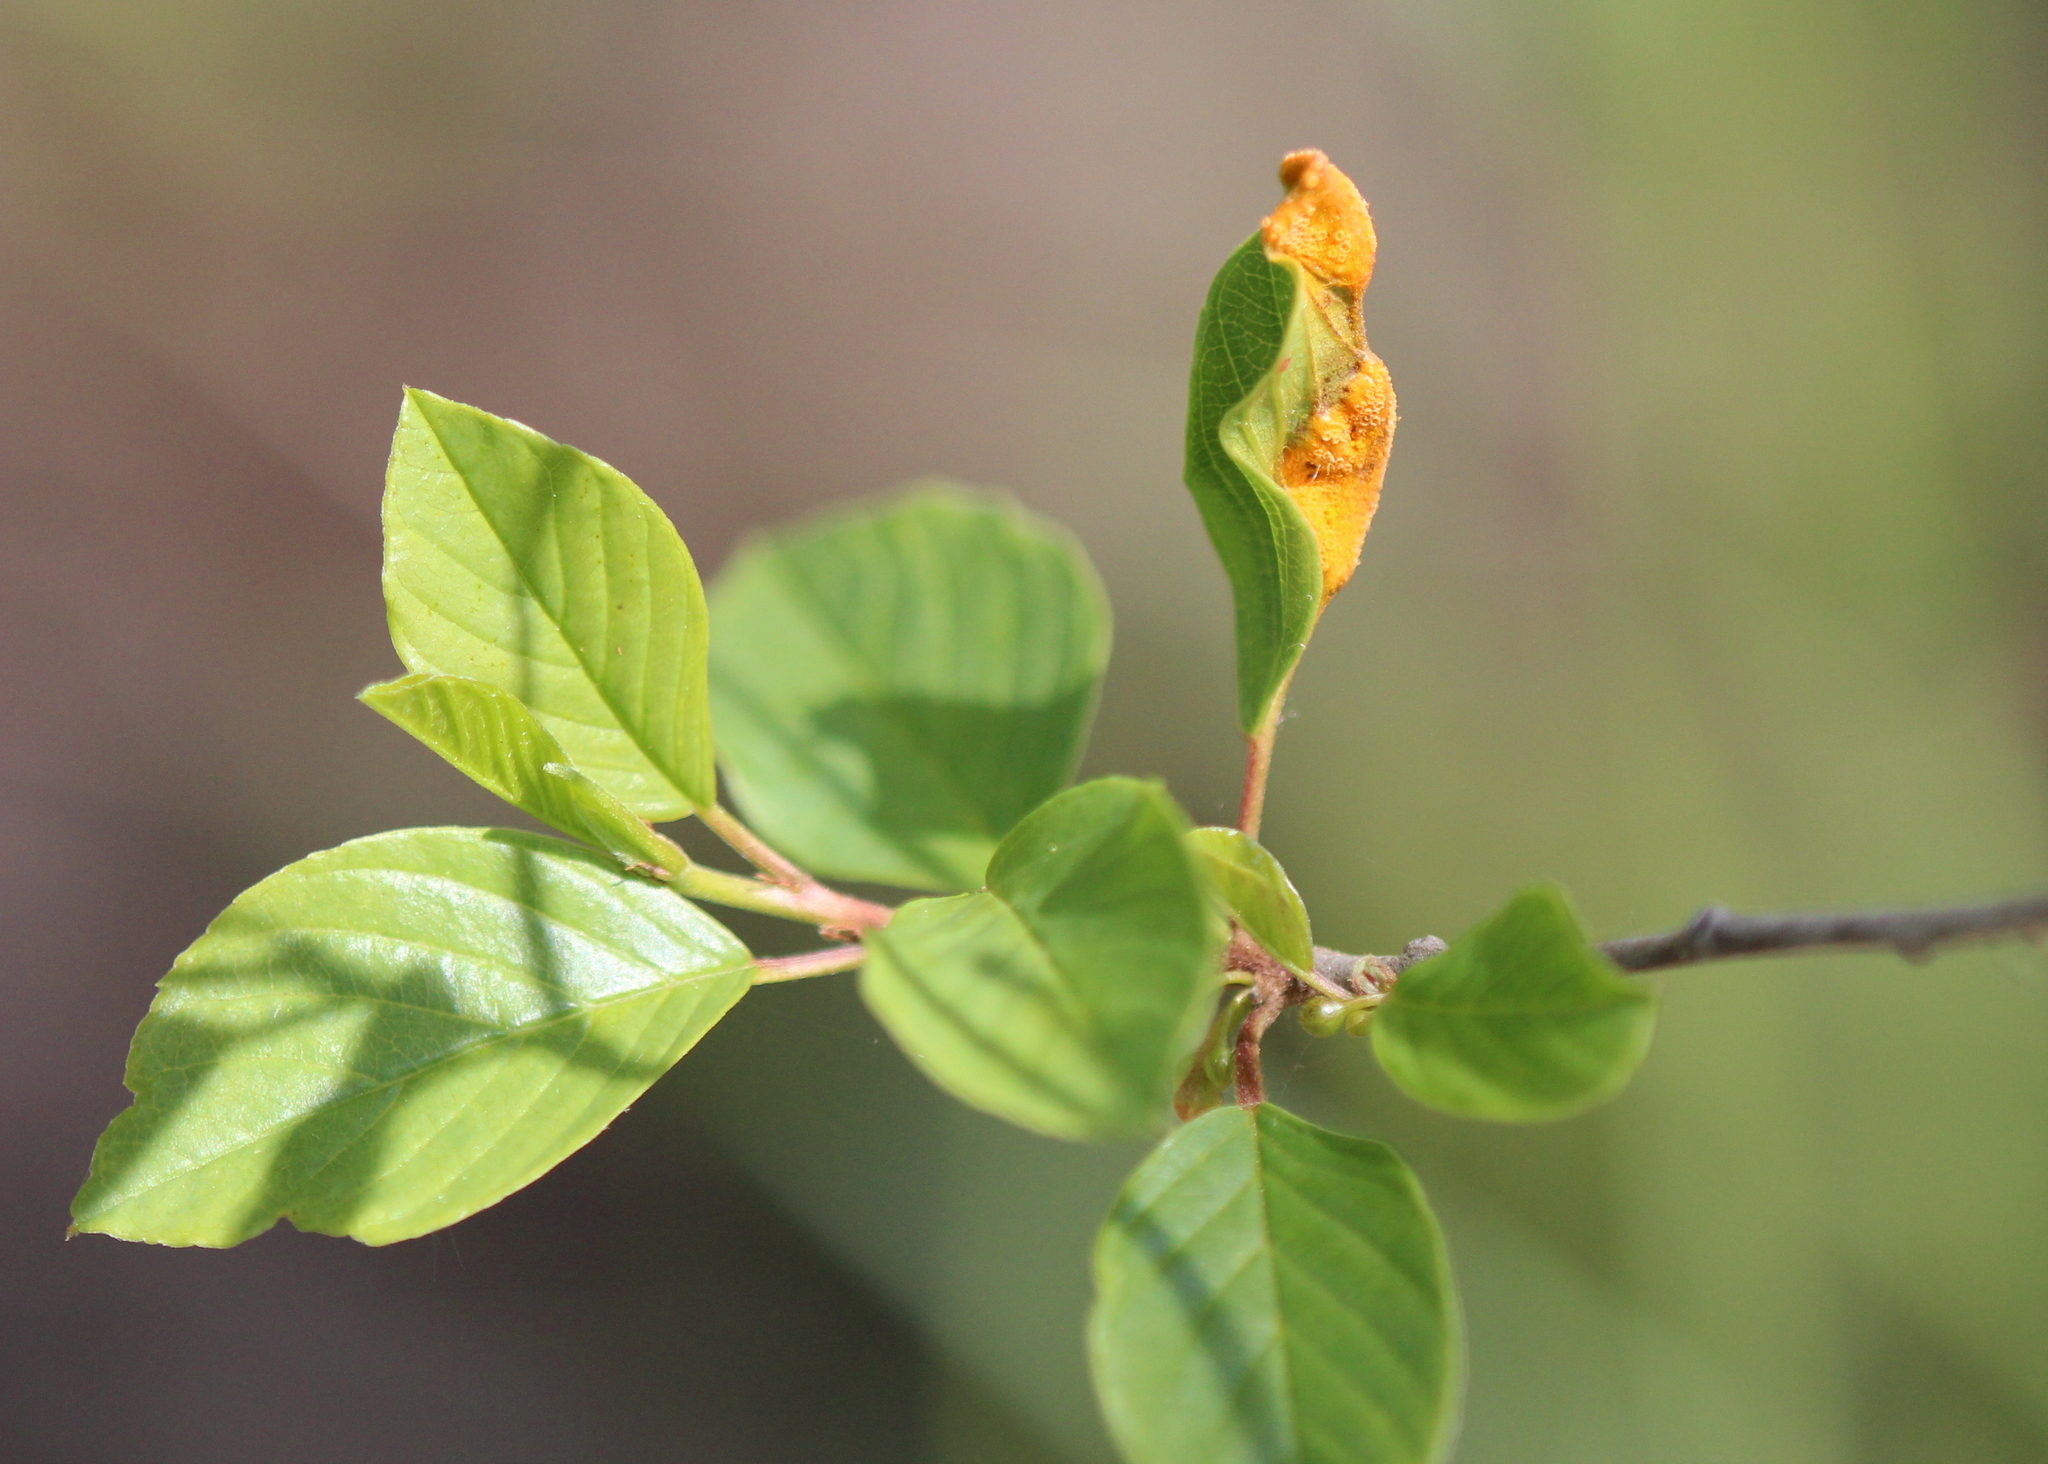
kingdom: Plantae
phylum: Tracheophyta
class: Magnoliopsida
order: Rosales
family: Rhamnaceae
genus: Frangula
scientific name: Frangula alnus
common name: Alder buckthorn
